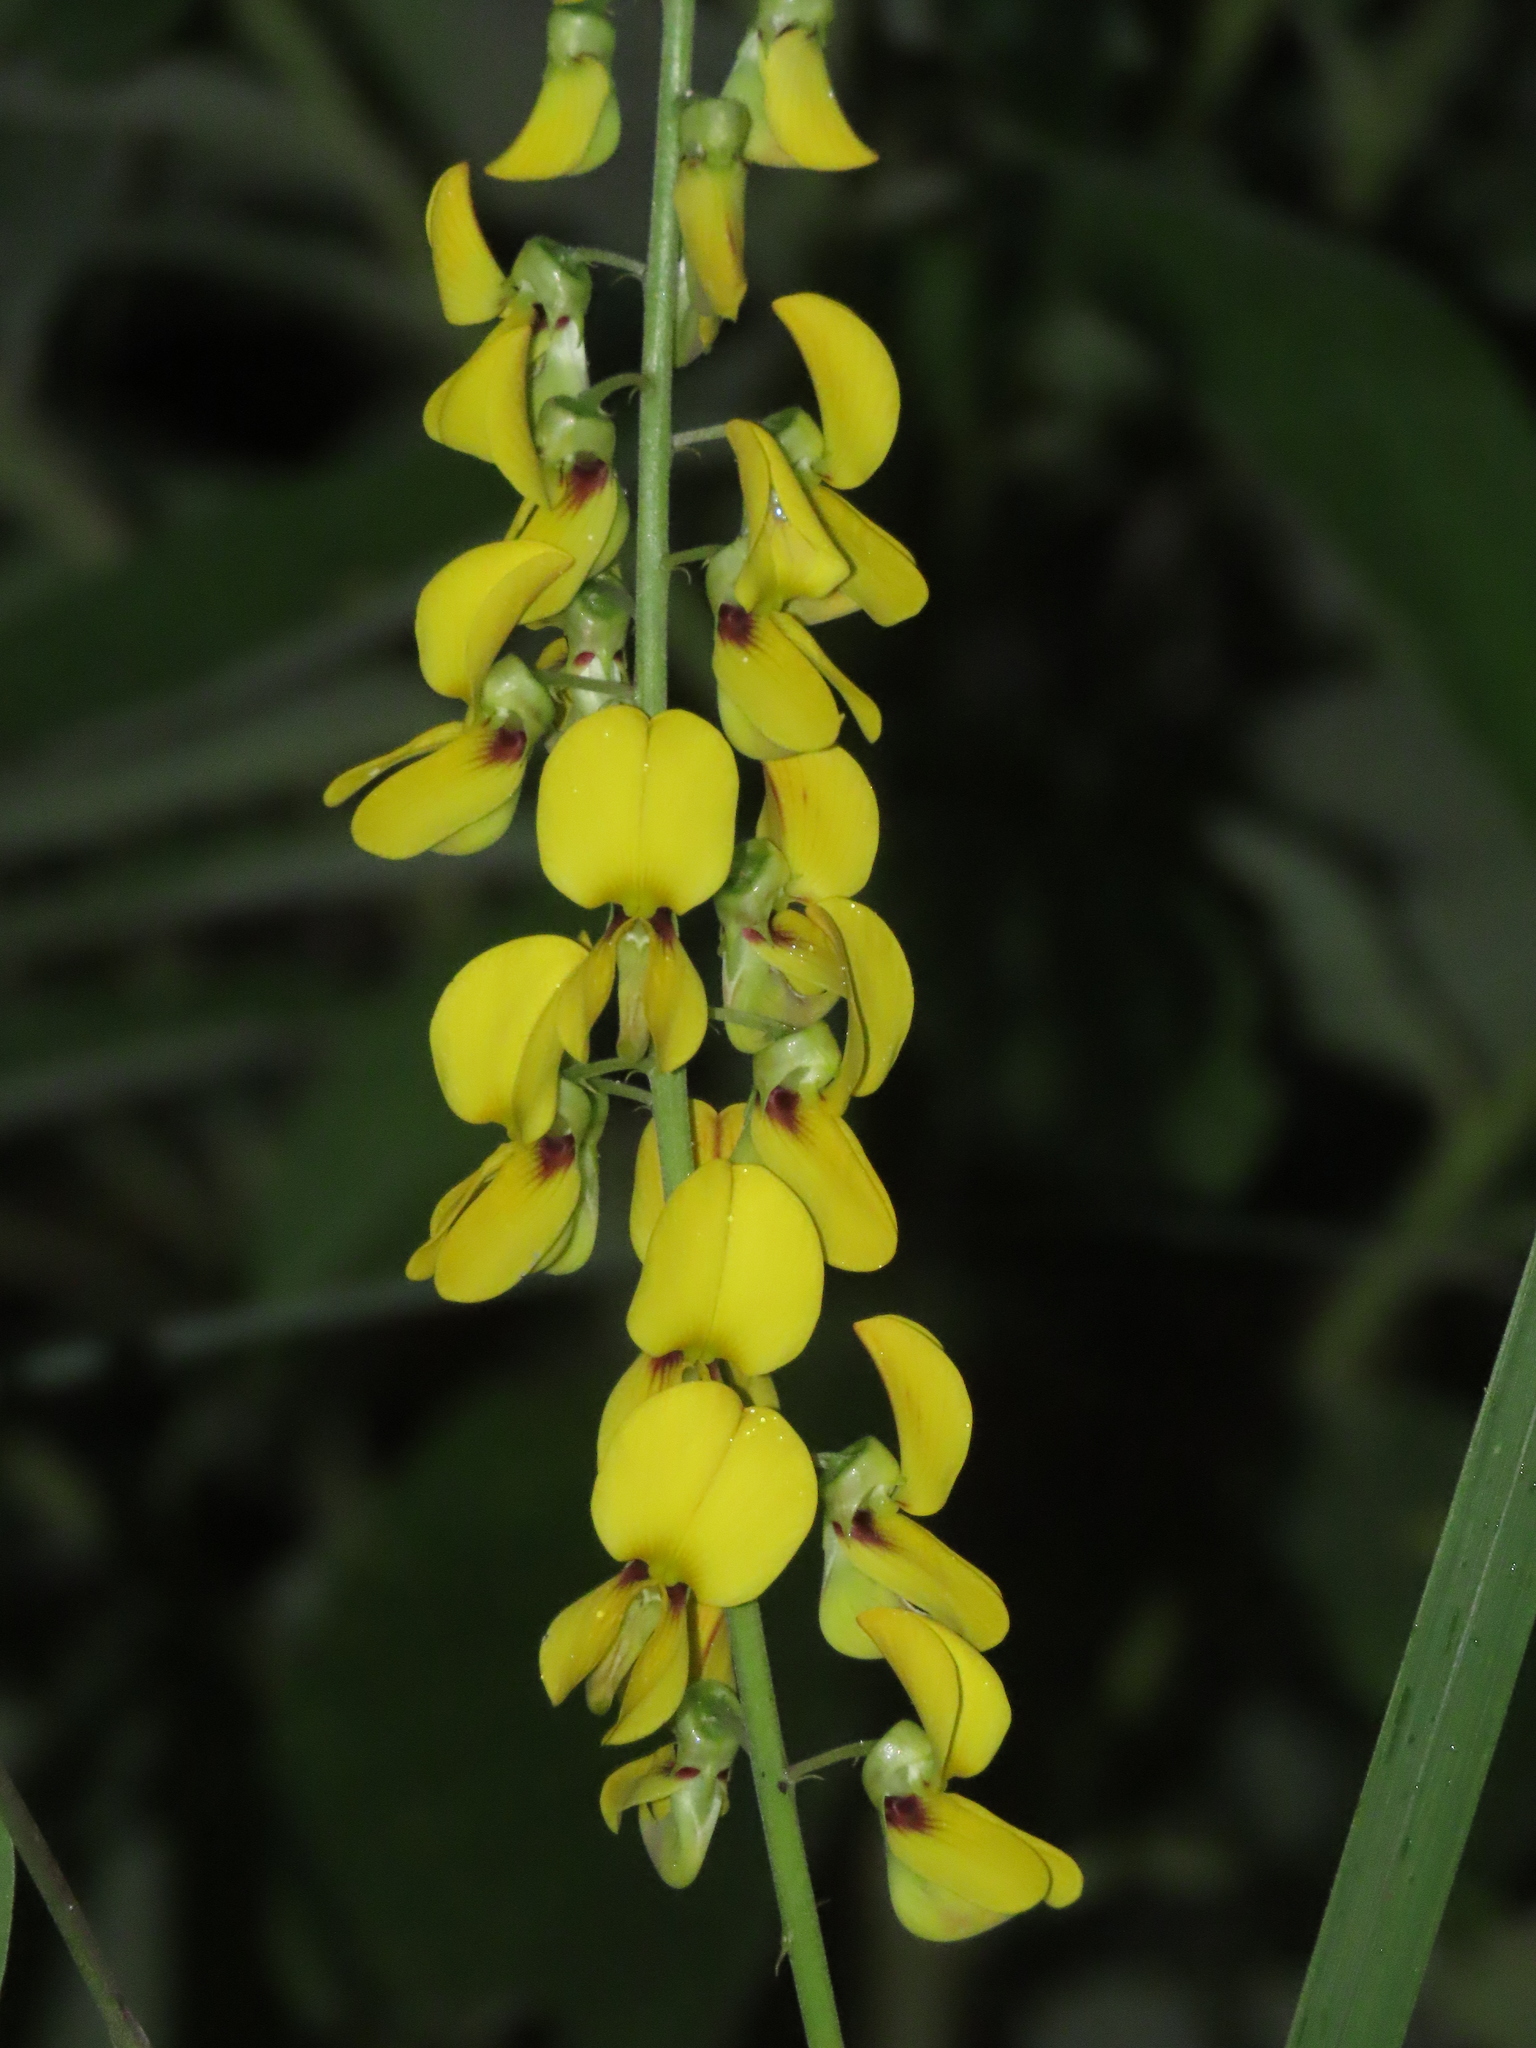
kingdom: Plantae
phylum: Tracheophyta
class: Magnoliopsida
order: Fabales
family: Fabaceae
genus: Crotalaria
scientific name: Crotalaria trichotoma
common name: West indian rattlebox
